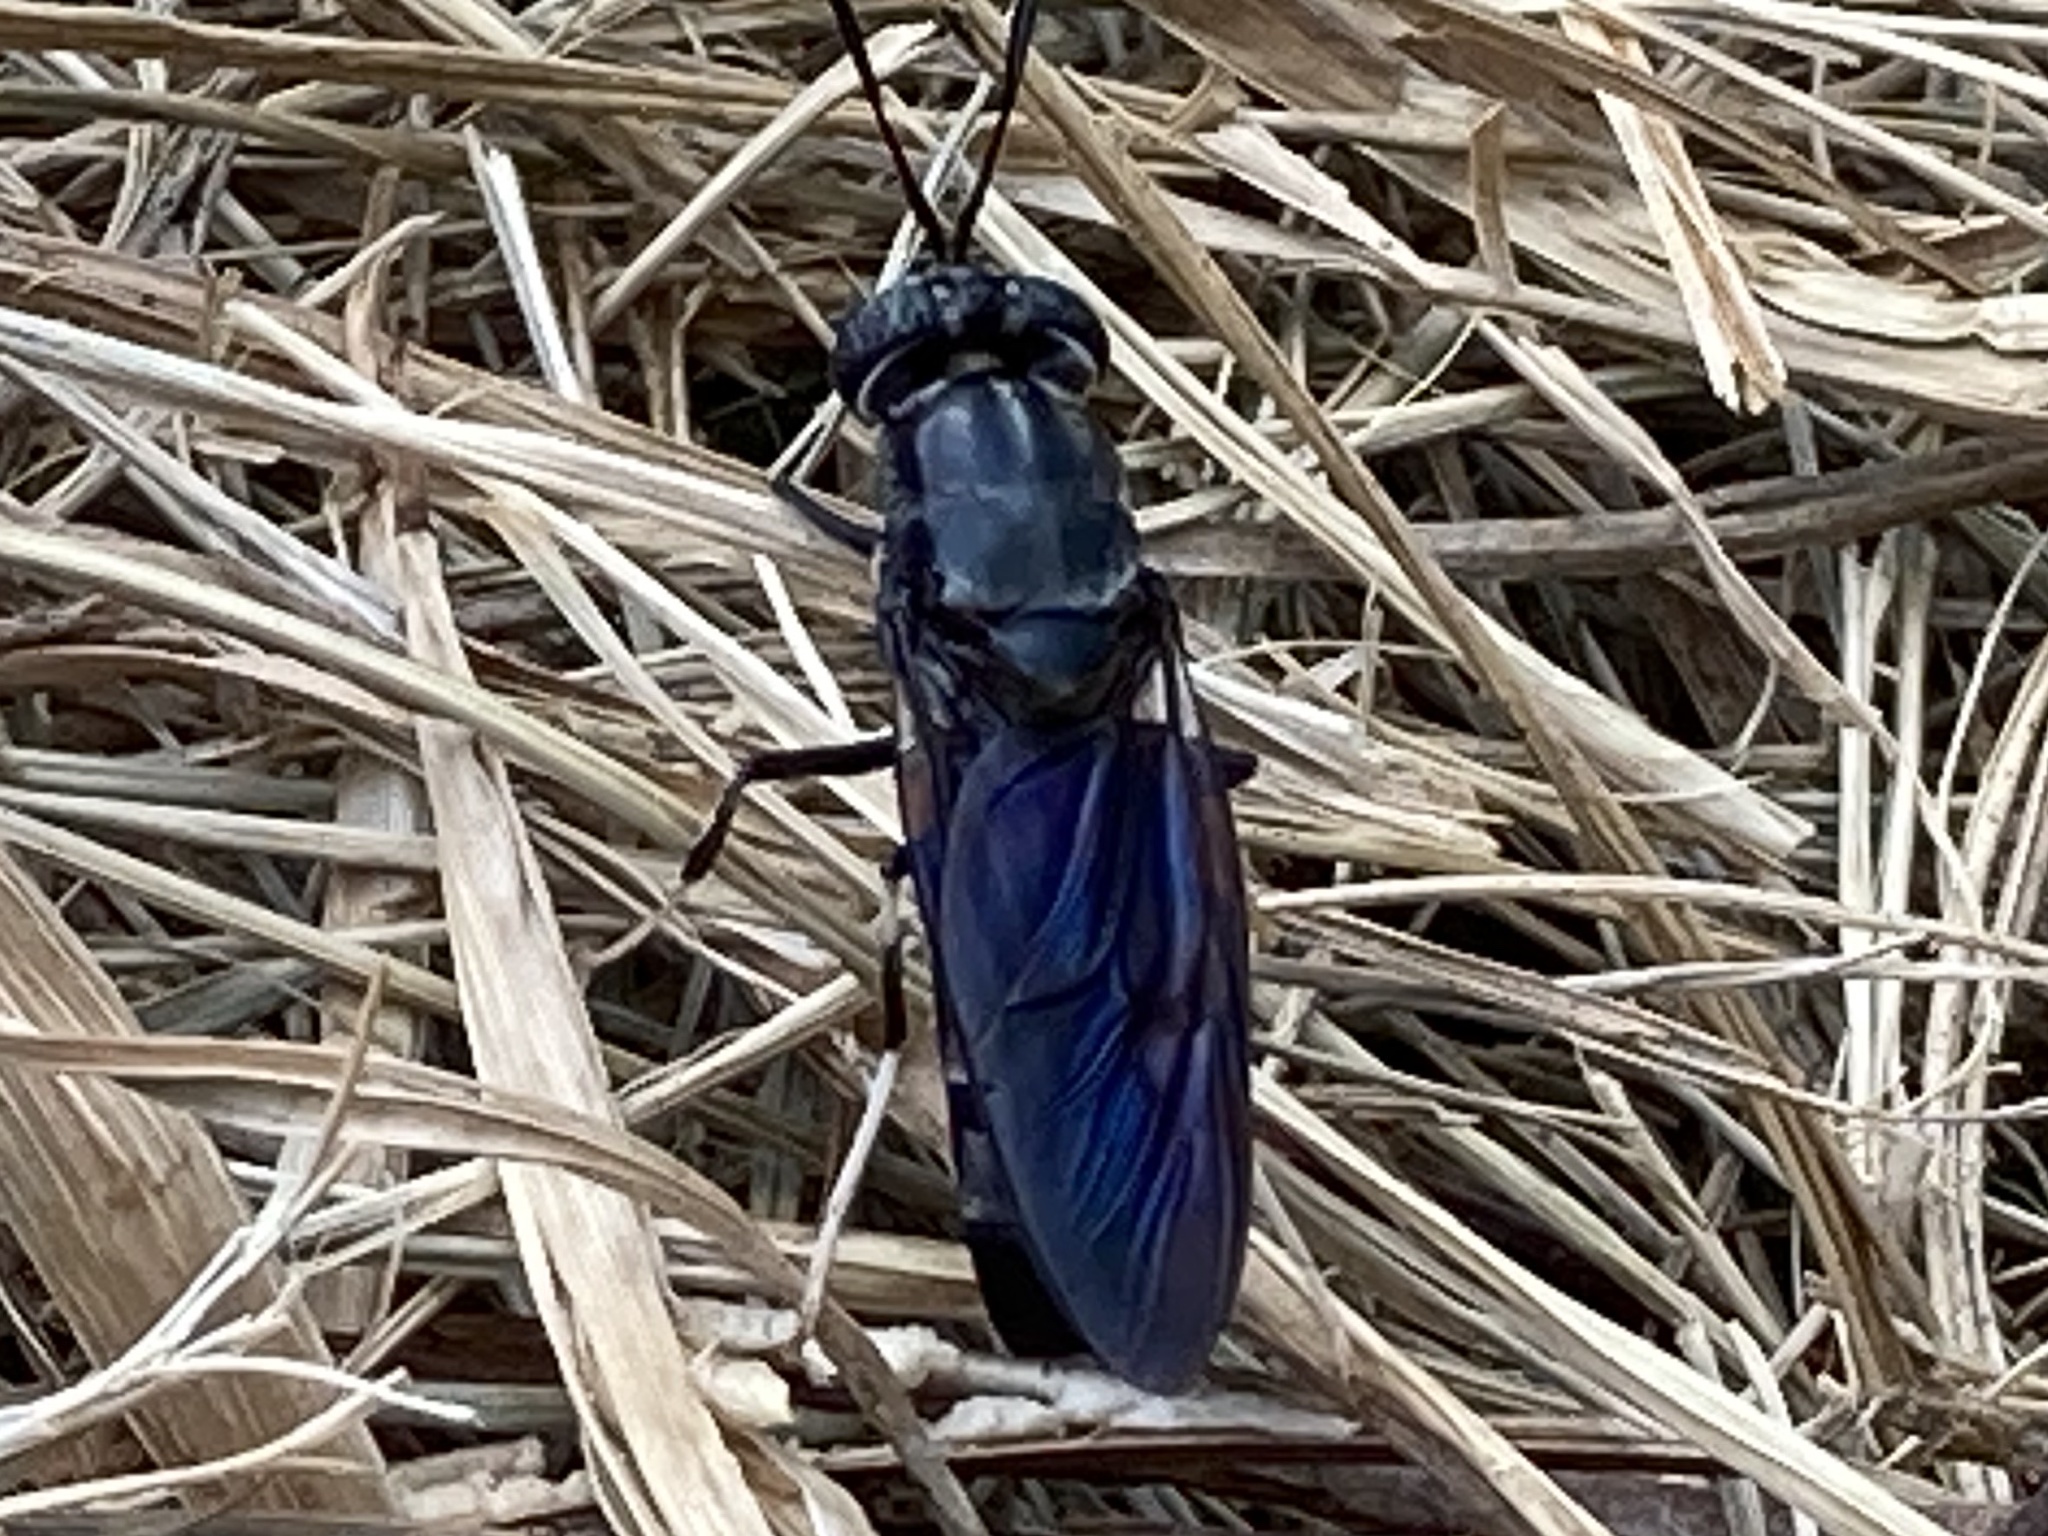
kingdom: Animalia
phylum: Arthropoda
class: Insecta
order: Diptera
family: Stratiomyidae
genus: Hermetia
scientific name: Hermetia illucens
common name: Black soldier fly
